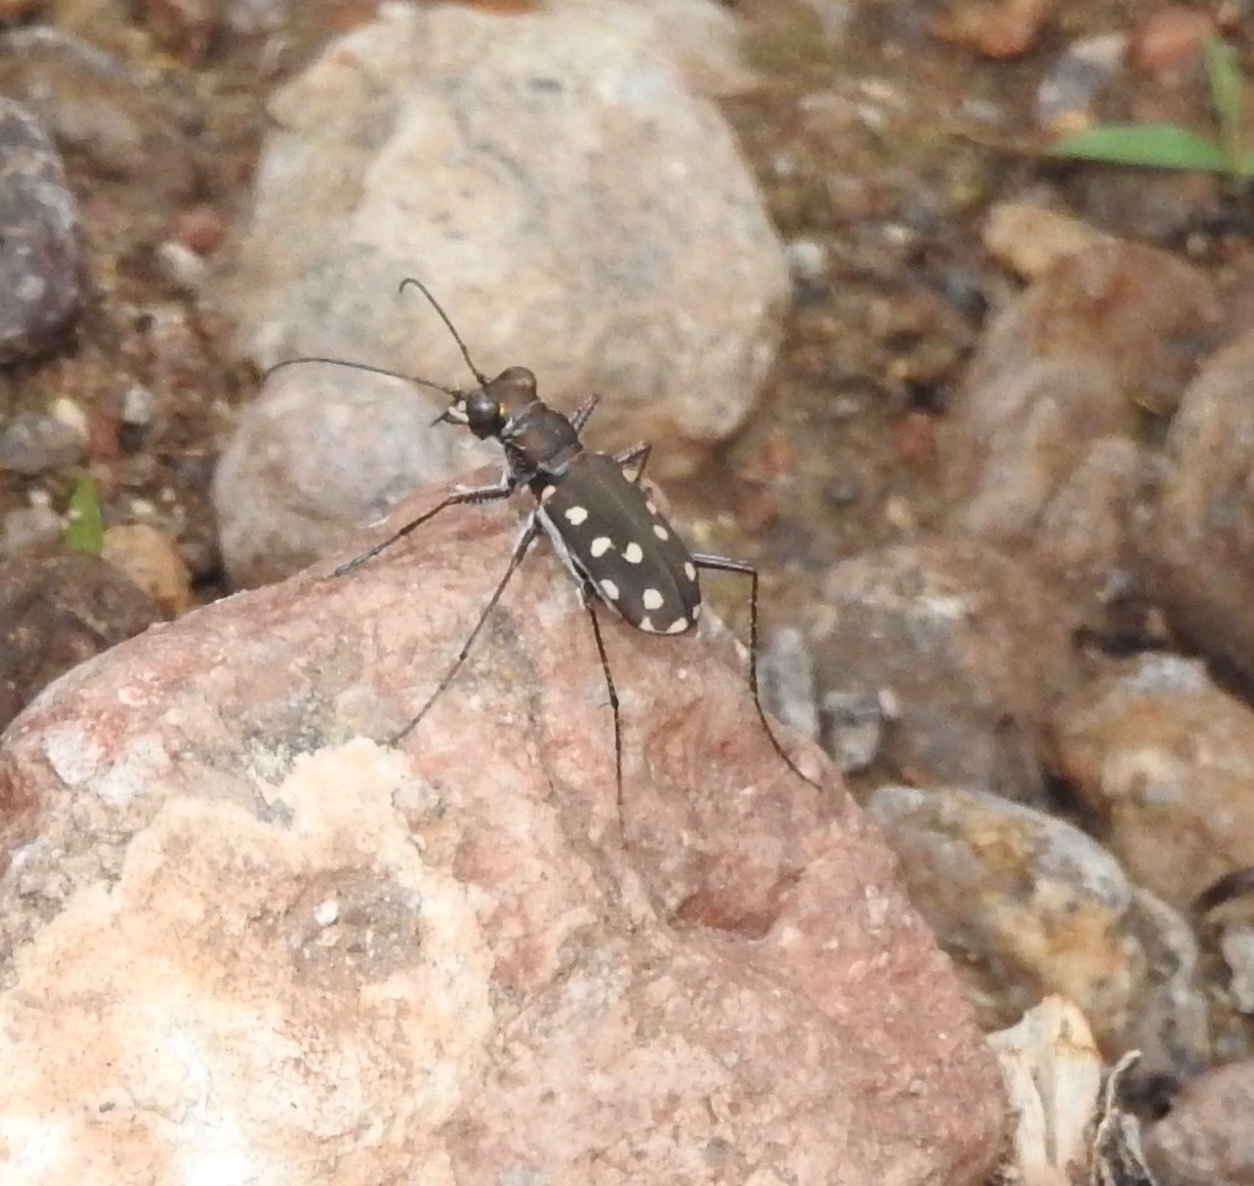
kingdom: Animalia
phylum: Arthropoda
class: Insecta
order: Coleoptera
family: Carabidae
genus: Cicindela
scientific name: Cicindela sedecimpunctata
